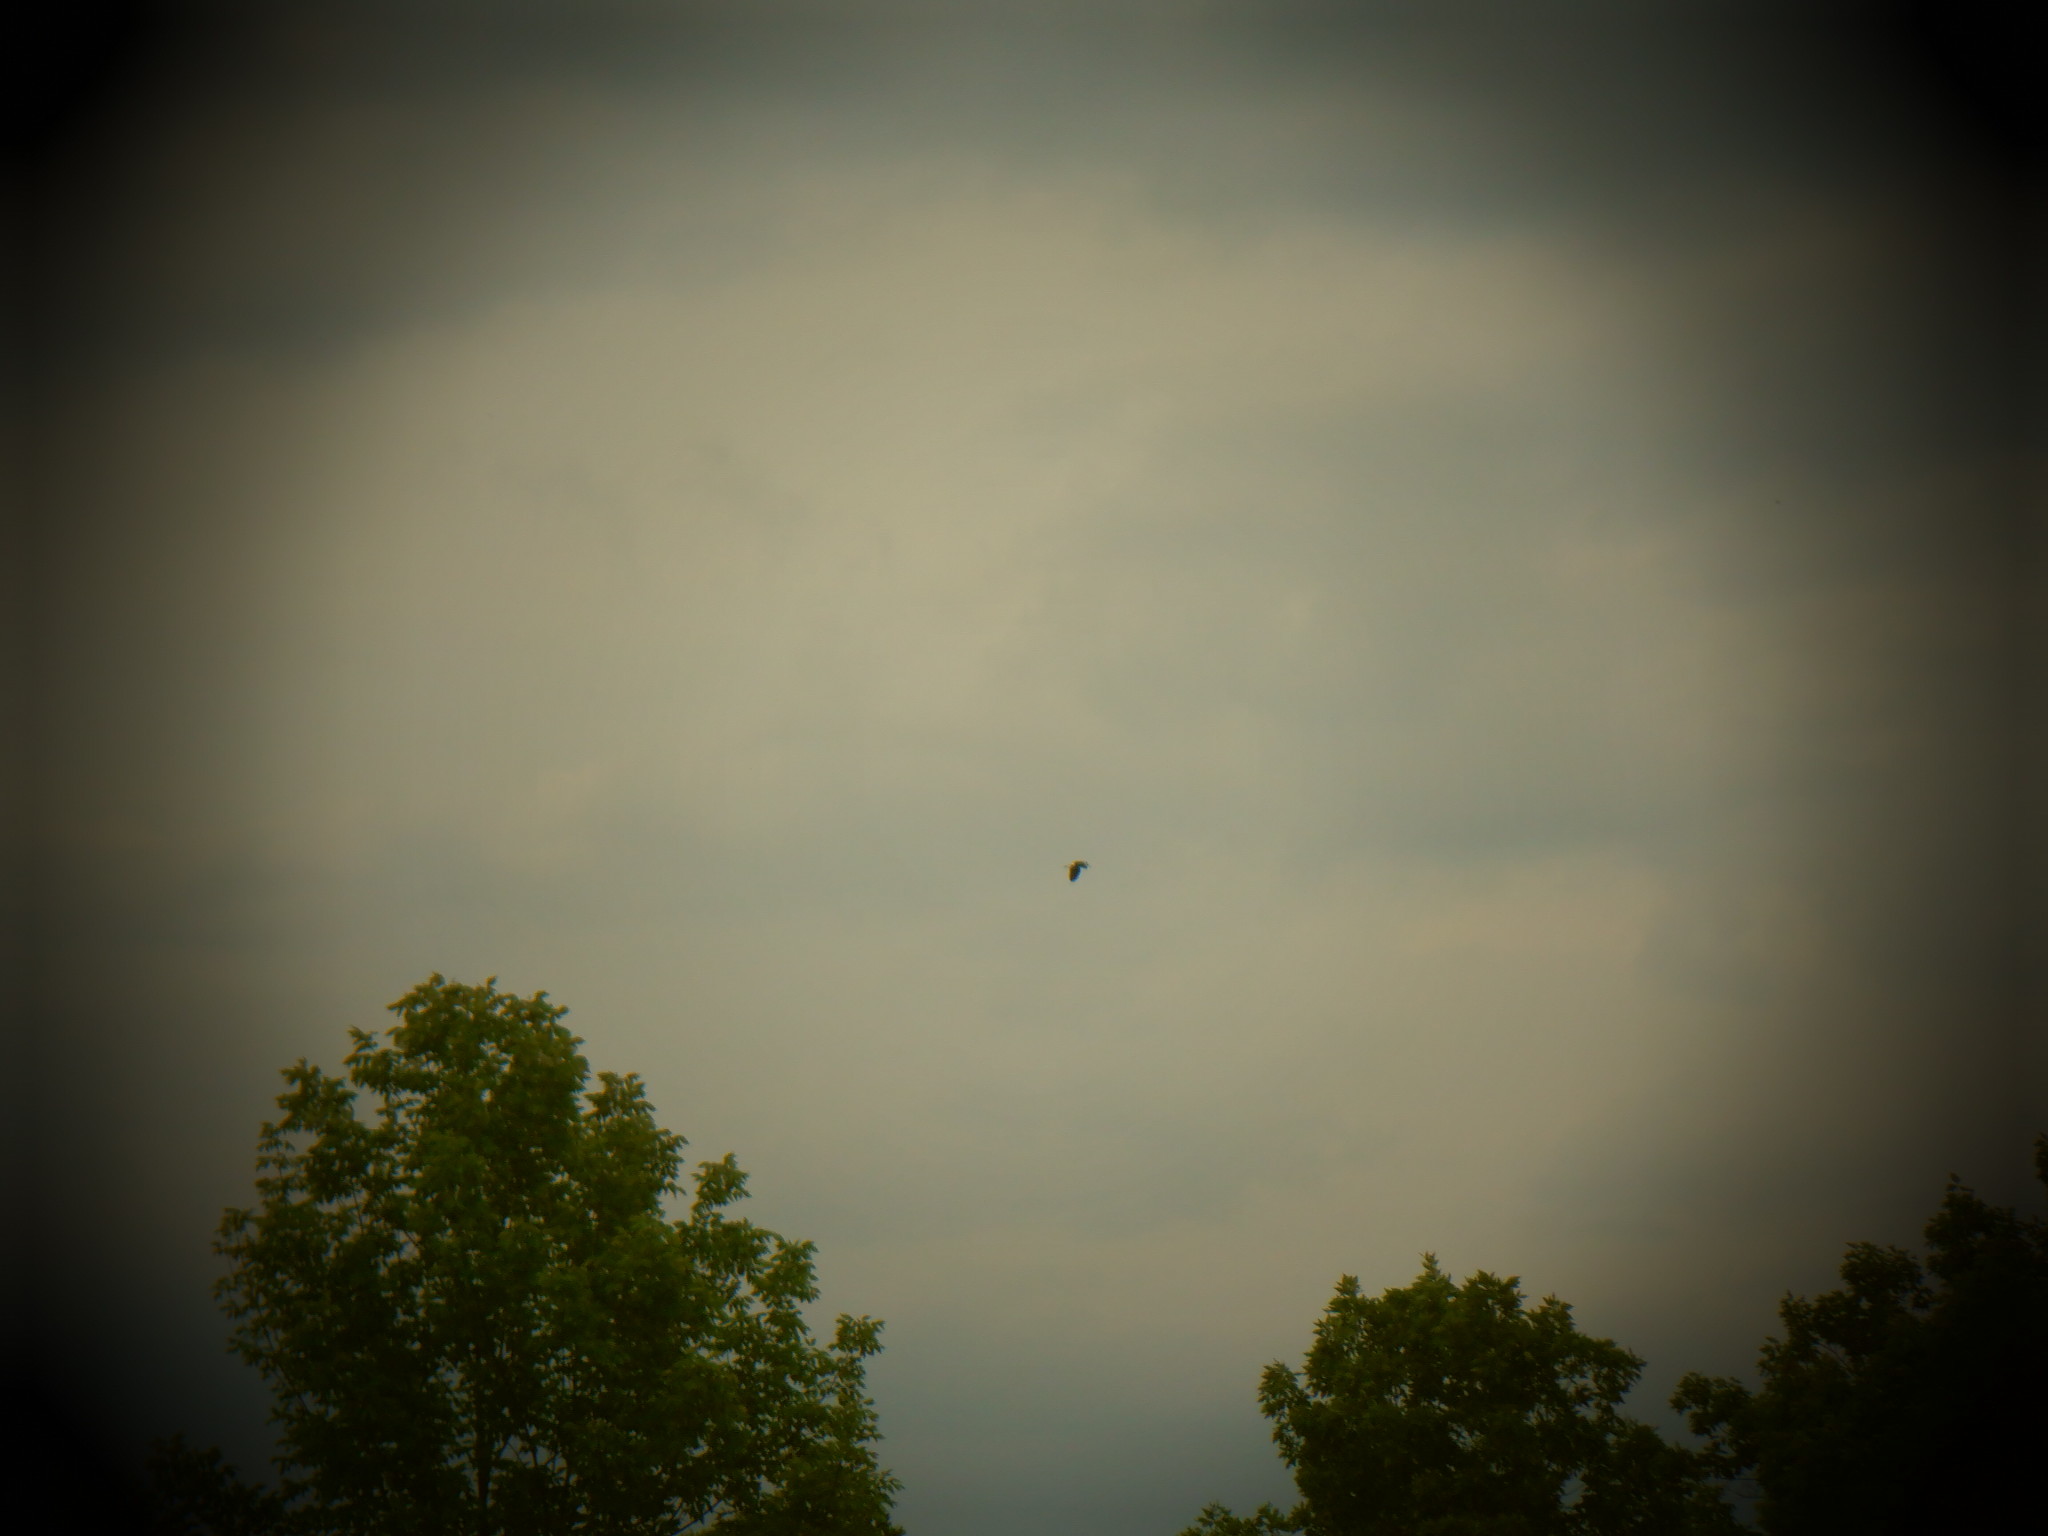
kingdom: Animalia
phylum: Chordata
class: Aves
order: Pelecaniformes
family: Ardeidae
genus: Ardea
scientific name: Ardea herodias
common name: Great blue heron
